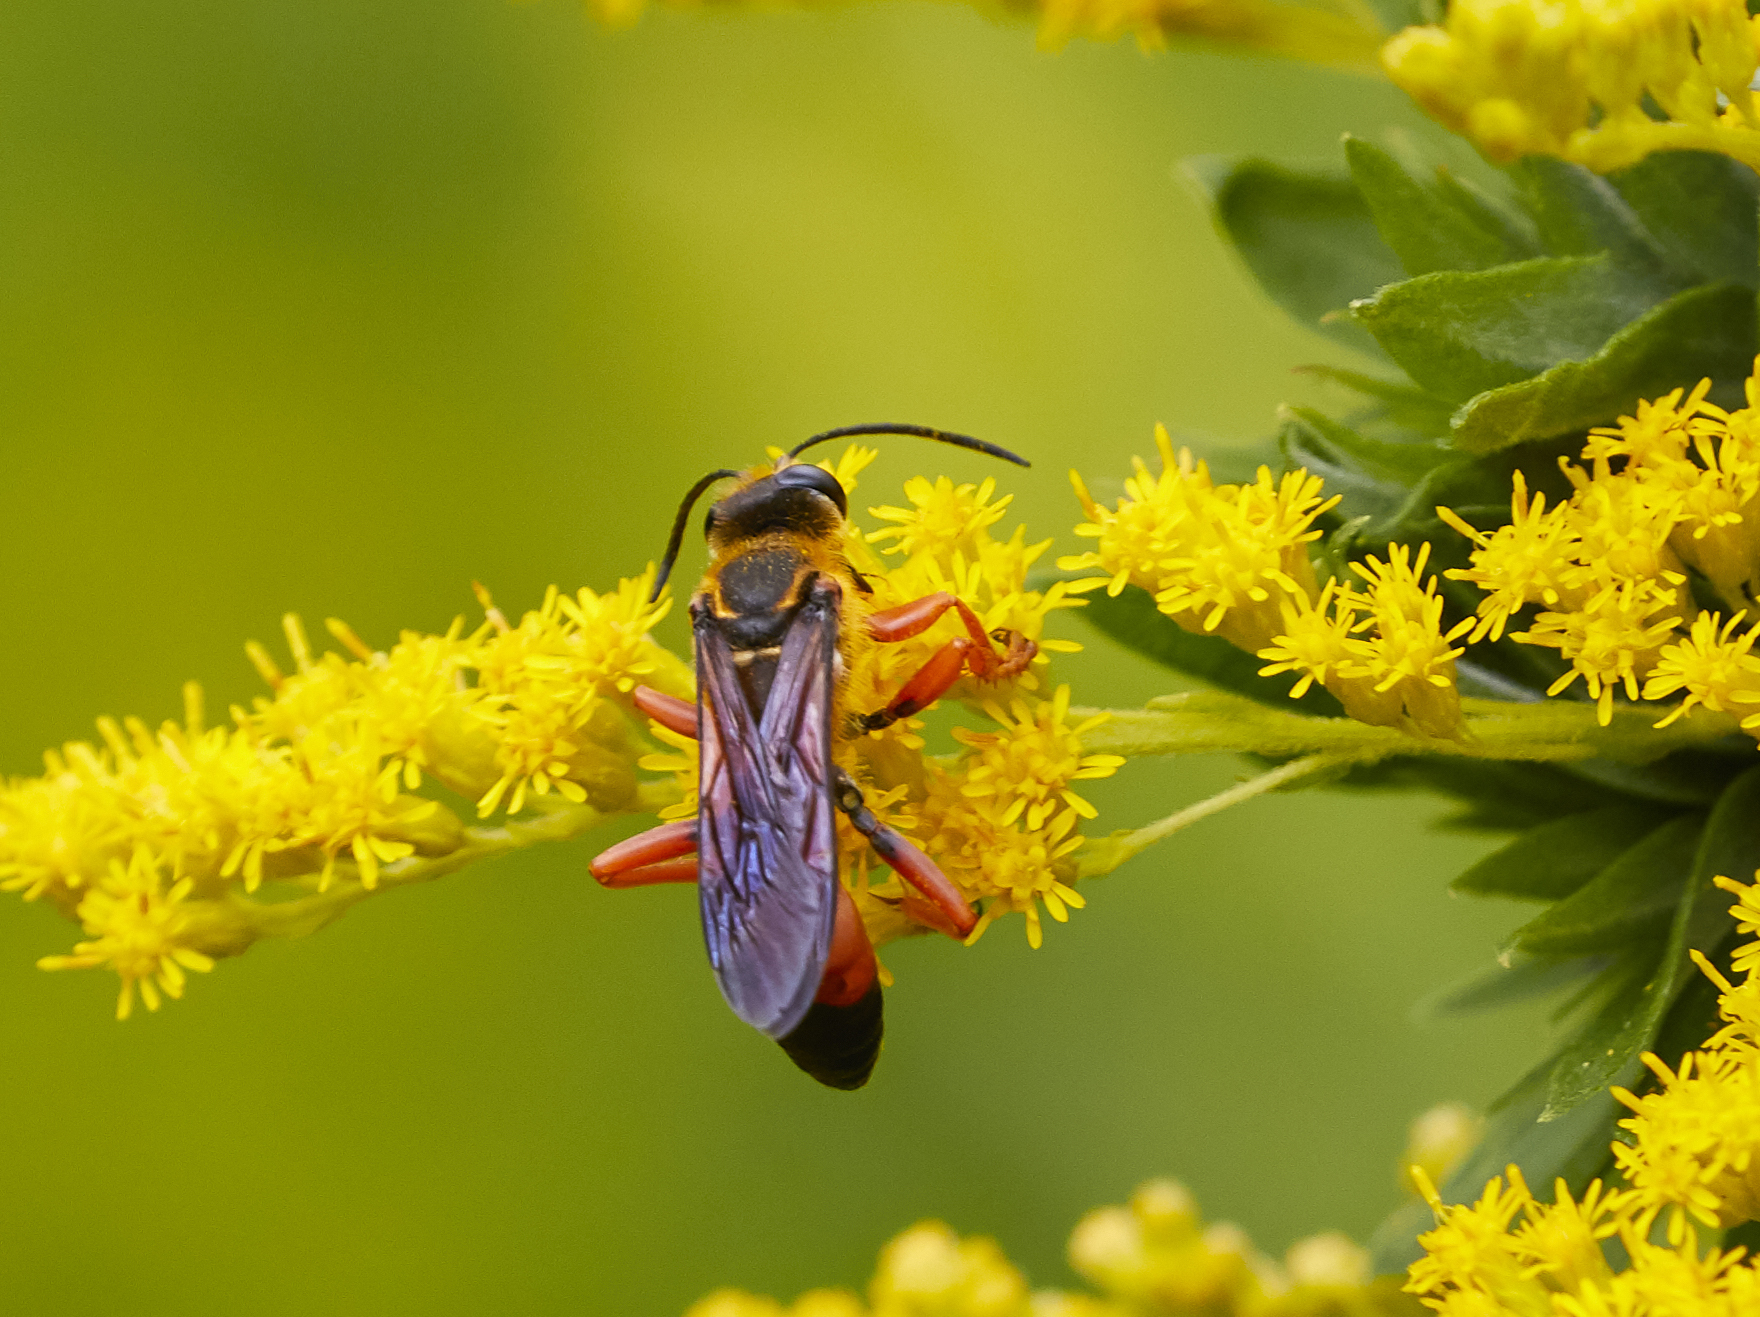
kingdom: Animalia
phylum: Arthropoda
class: Insecta
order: Hymenoptera
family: Sphecidae
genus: Sphex
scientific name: Sphex ichneumoneus
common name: Great golden digger wasp
